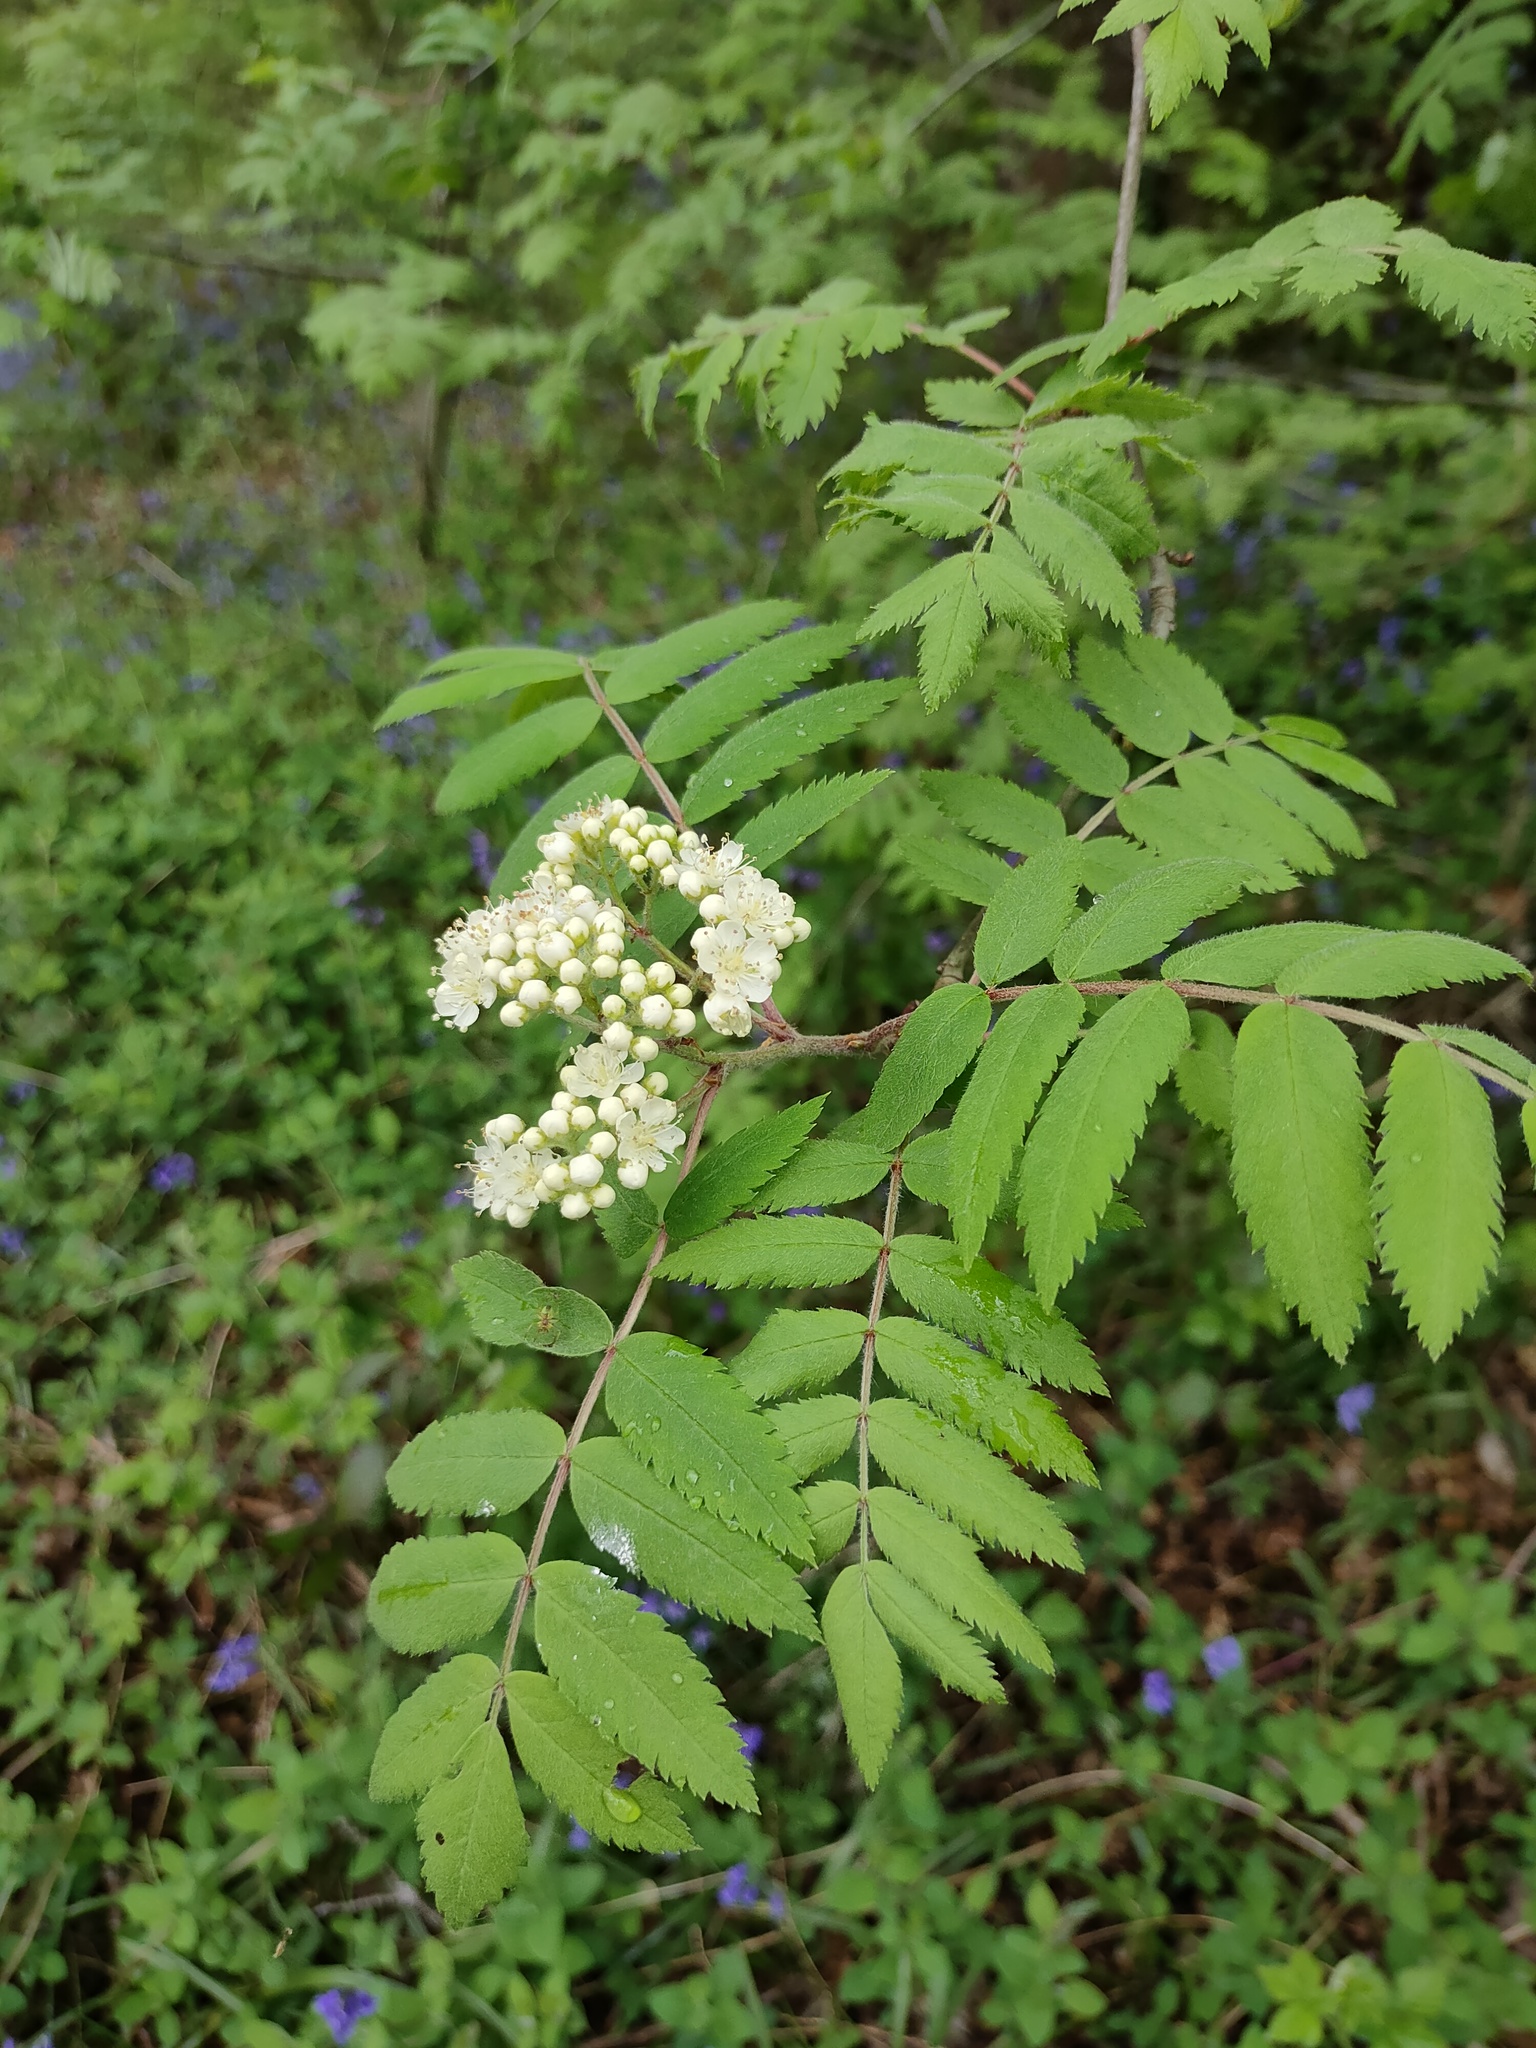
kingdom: Plantae
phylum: Tracheophyta
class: Magnoliopsida
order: Rosales
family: Rosaceae
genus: Sorbus
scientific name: Sorbus aucuparia
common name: Rowan
